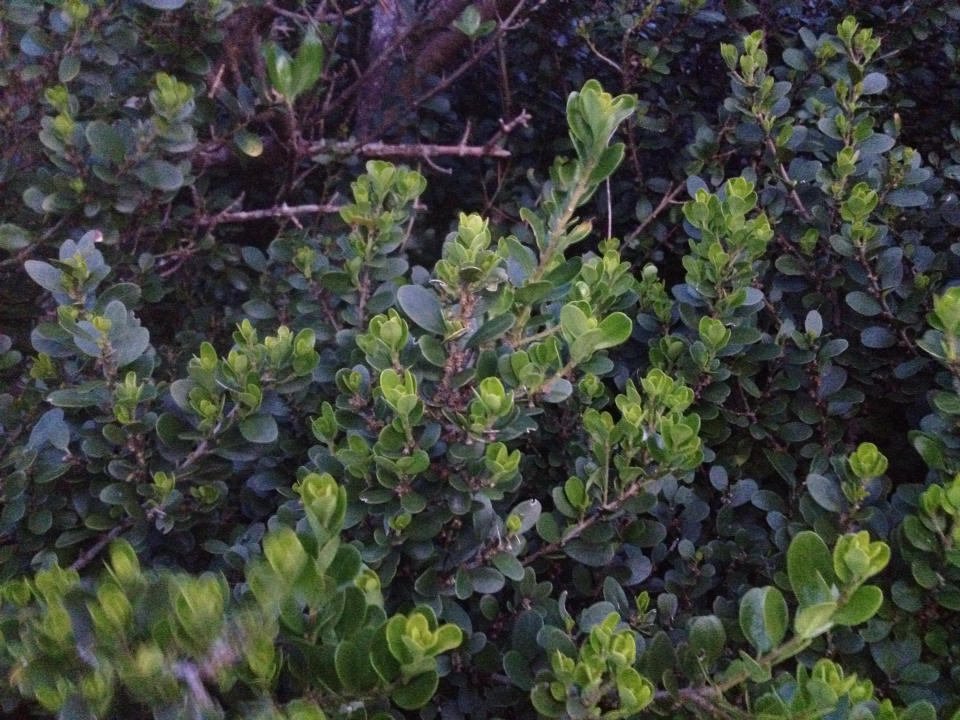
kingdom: Plantae
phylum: Tracheophyta
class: Magnoliopsida
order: Malpighiales
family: Violaceae
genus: Melicytus
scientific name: Melicytus orarius
